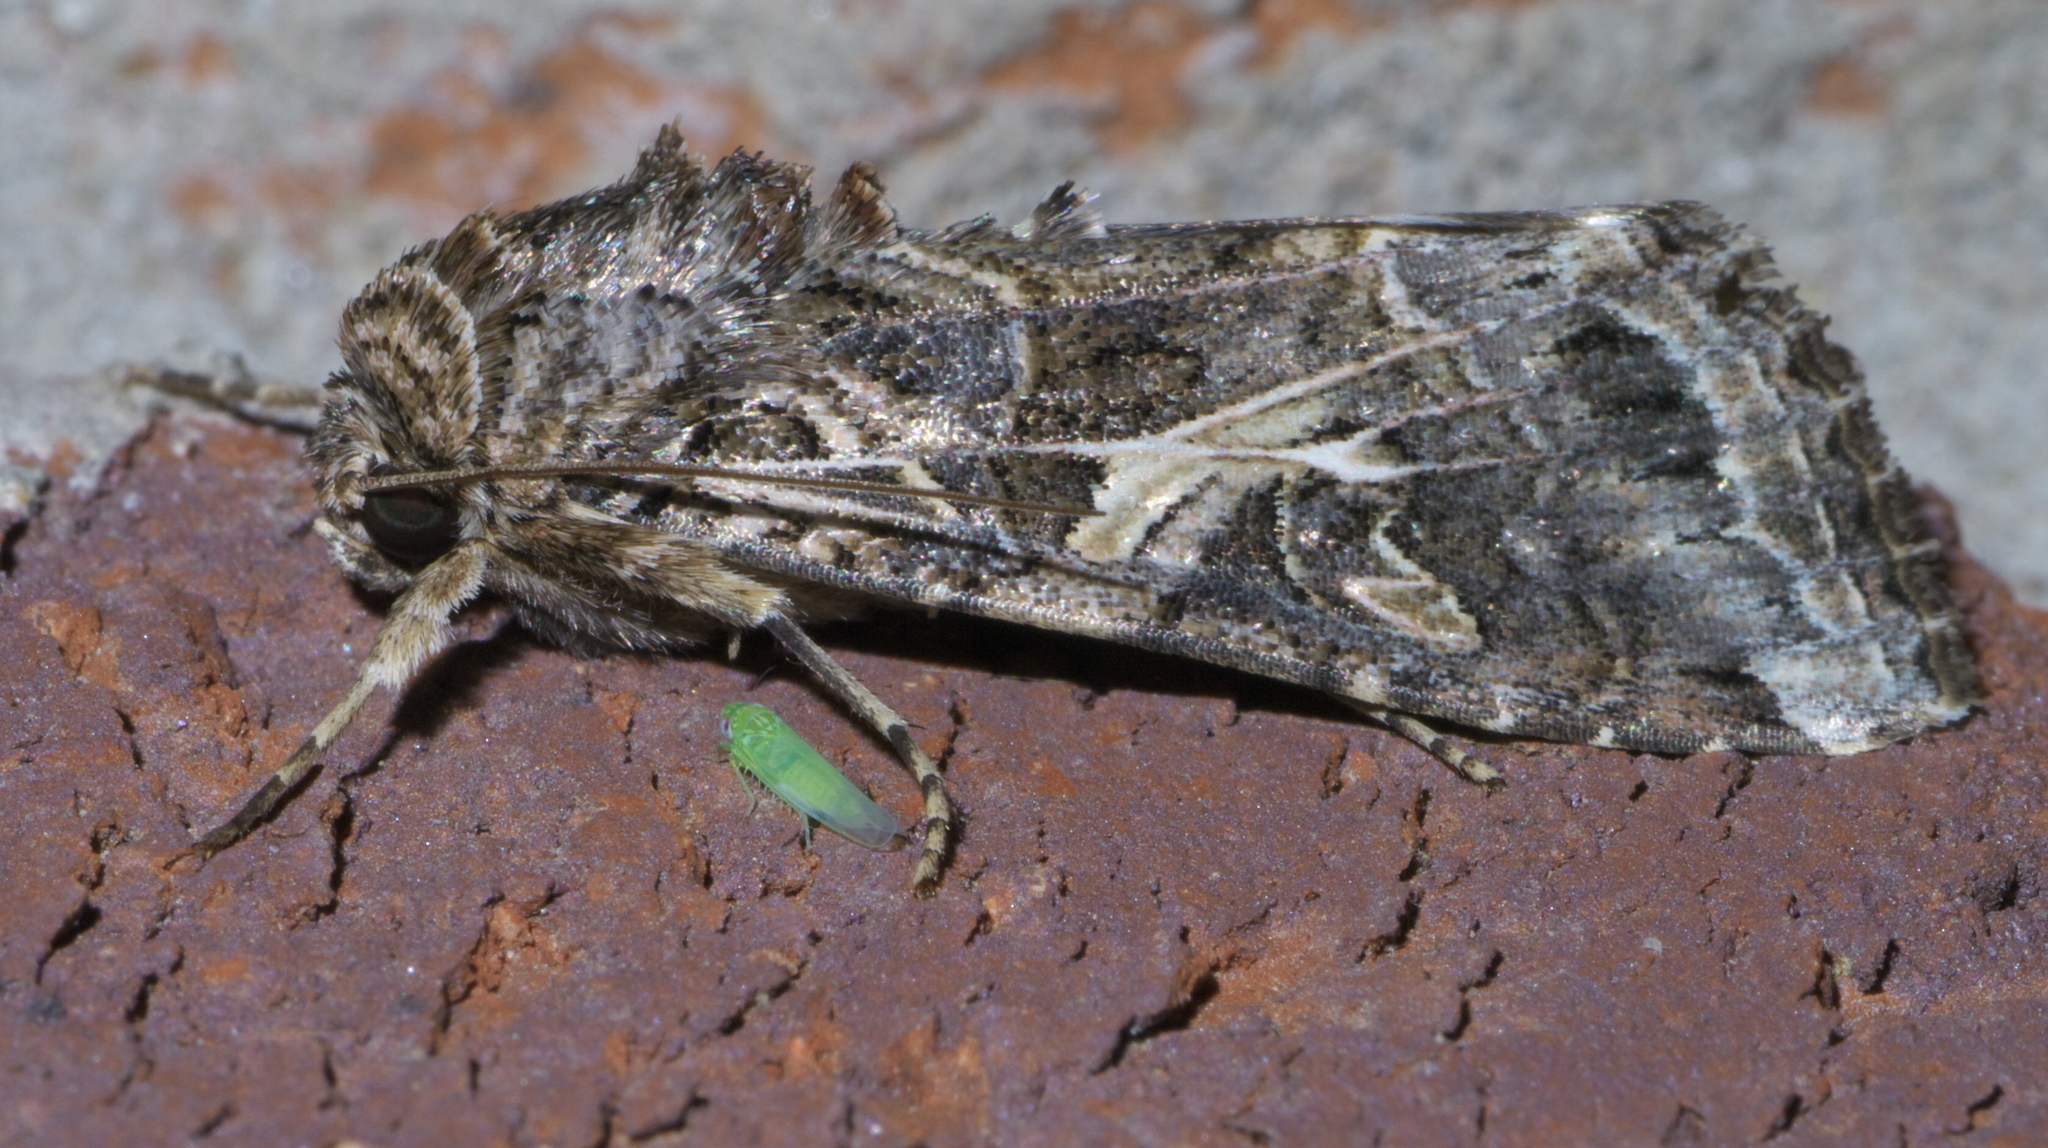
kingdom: Animalia
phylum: Arthropoda
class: Insecta
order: Lepidoptera
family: Noctuidae
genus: Spodoptera
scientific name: Spodoptera ornithogalli
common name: Yellow-striped armyworm
